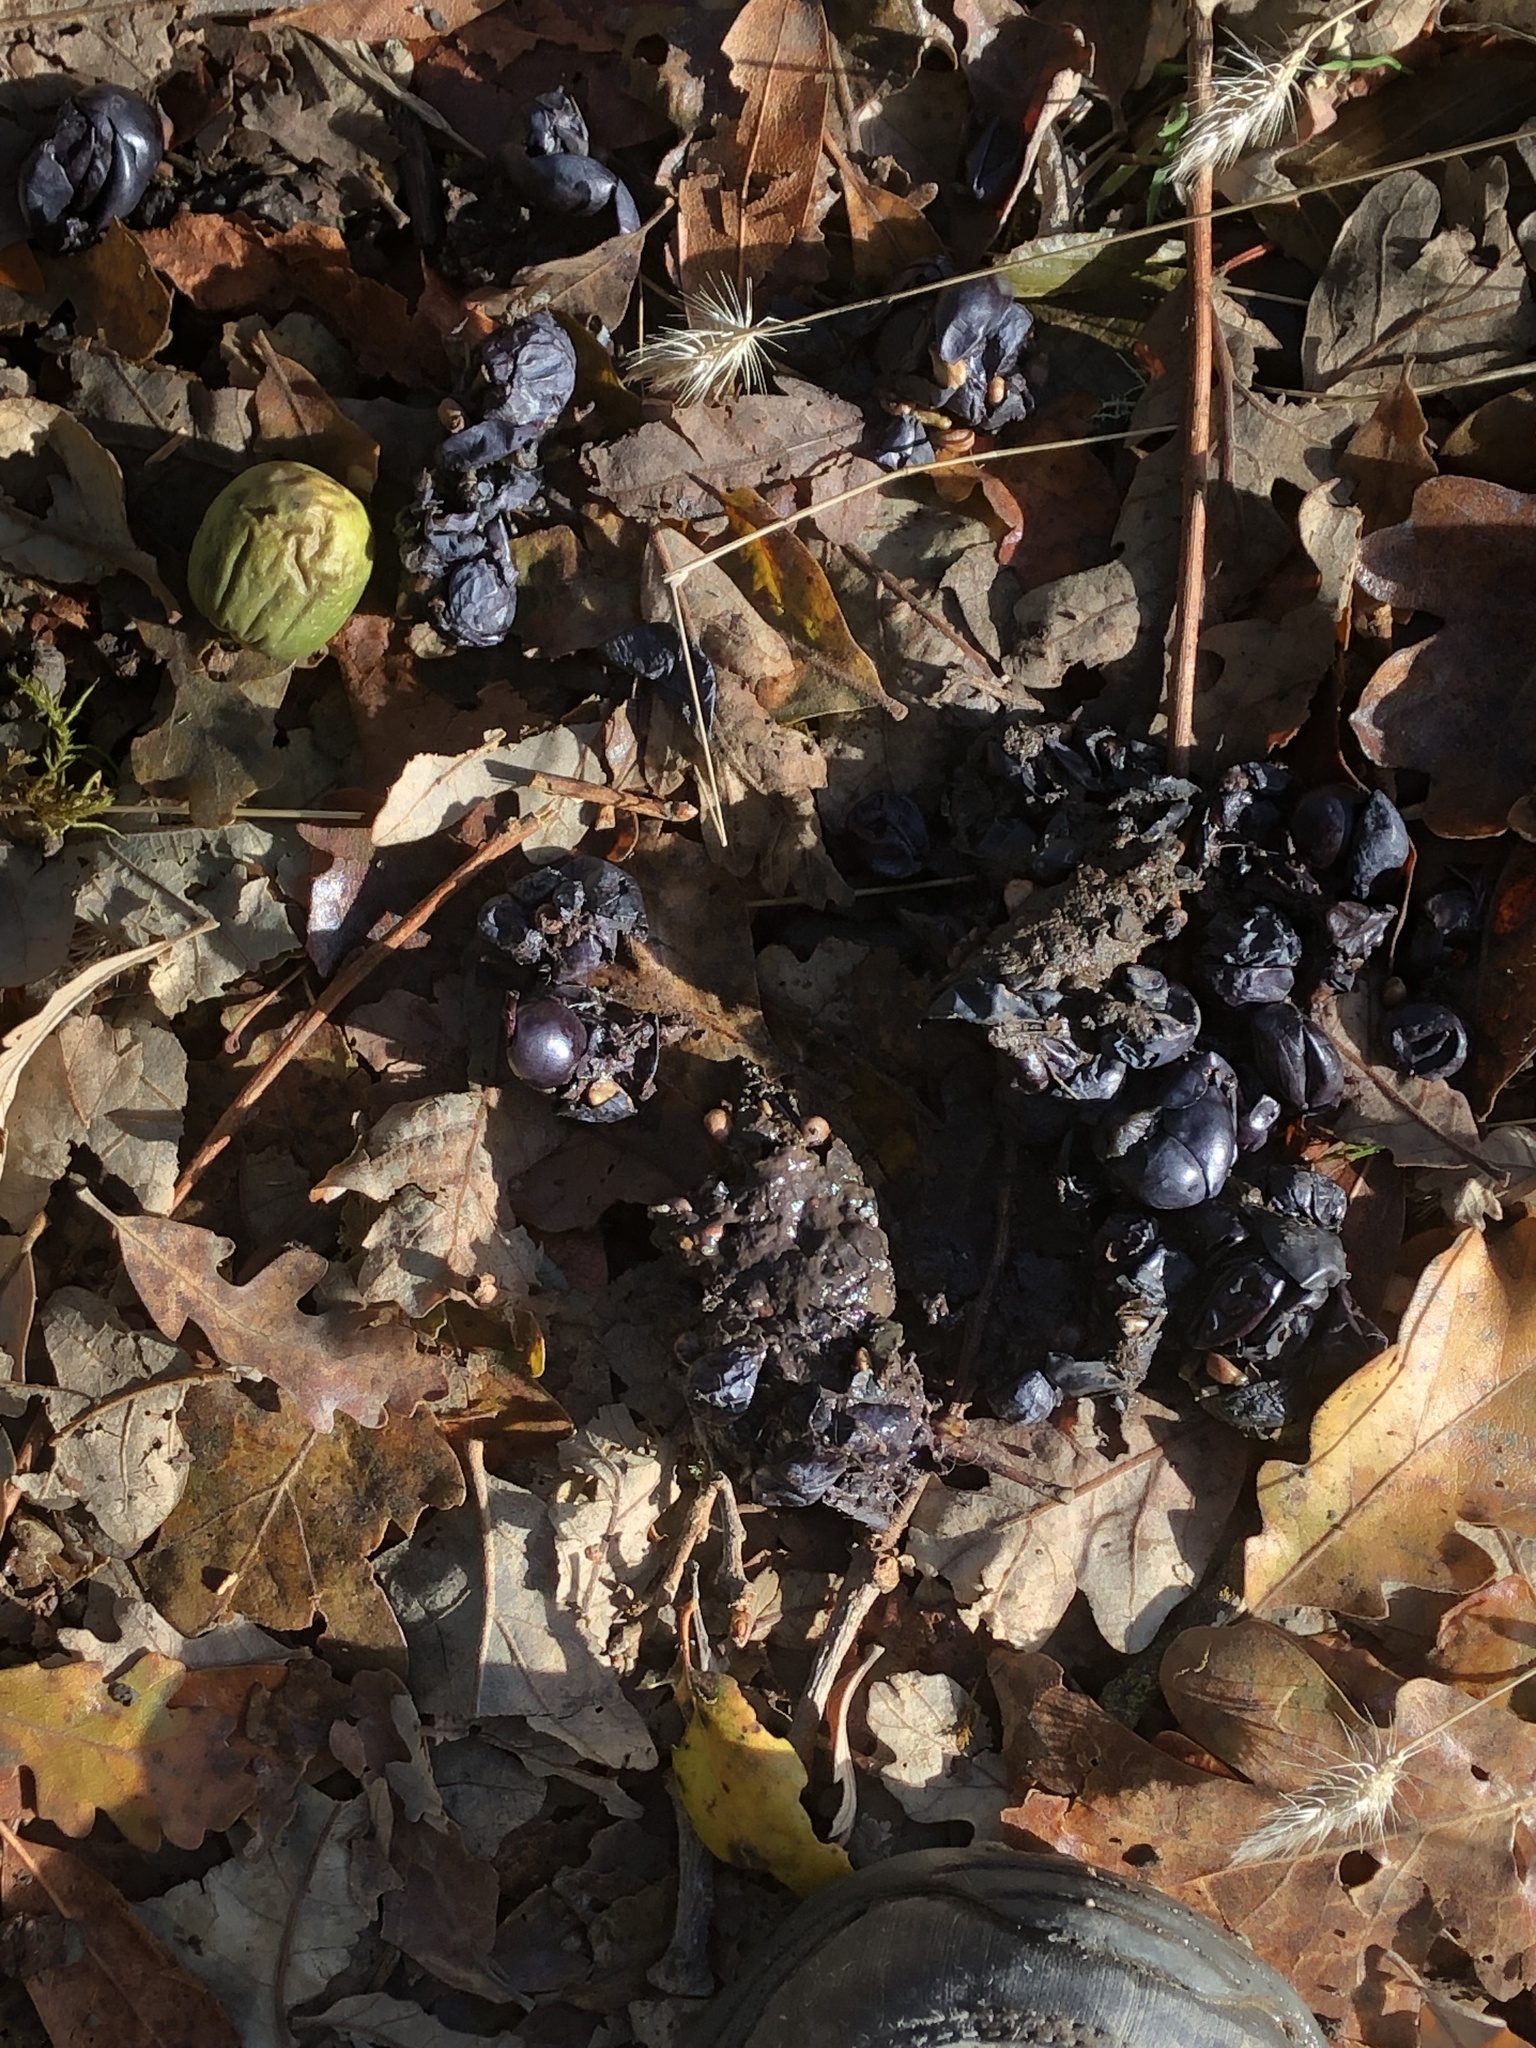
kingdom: Animalia
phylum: Chordata
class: Mammalia
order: Carnivora
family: Ursidae
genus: Ursus
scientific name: Ursus americanus
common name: American black bear
